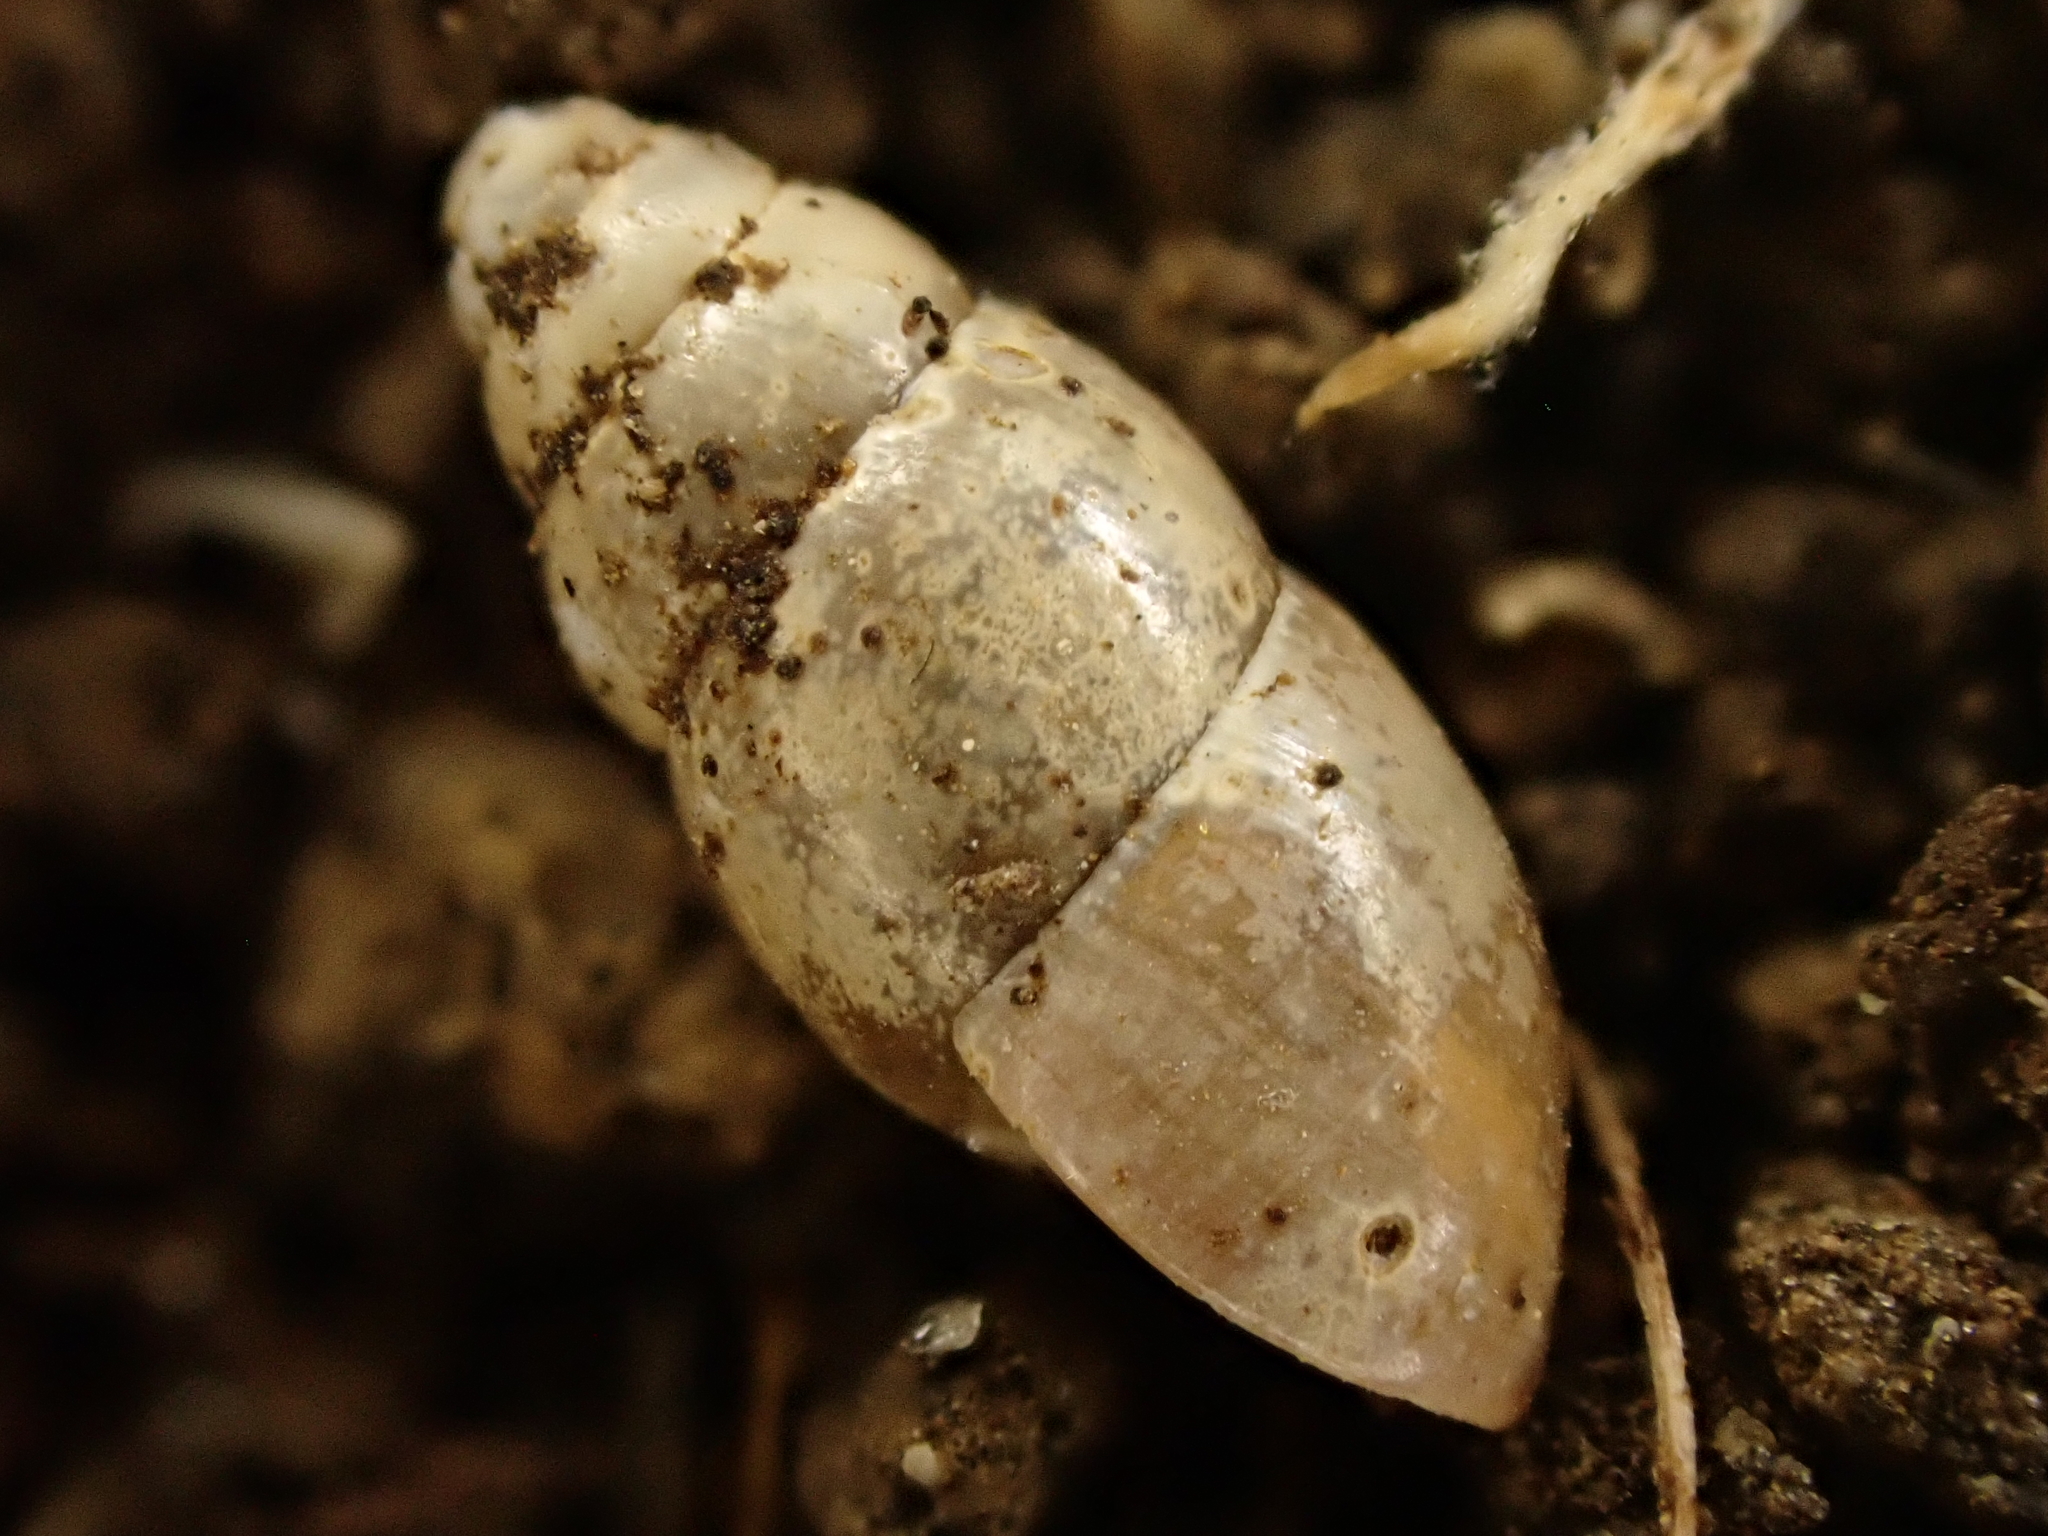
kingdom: Animalia
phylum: Mollusca
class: Gastropoda
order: Stylommatophora
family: Cochlicopidae
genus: Cochlicopa
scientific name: Cochlicopa lubrica
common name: Glossy pillar snail
